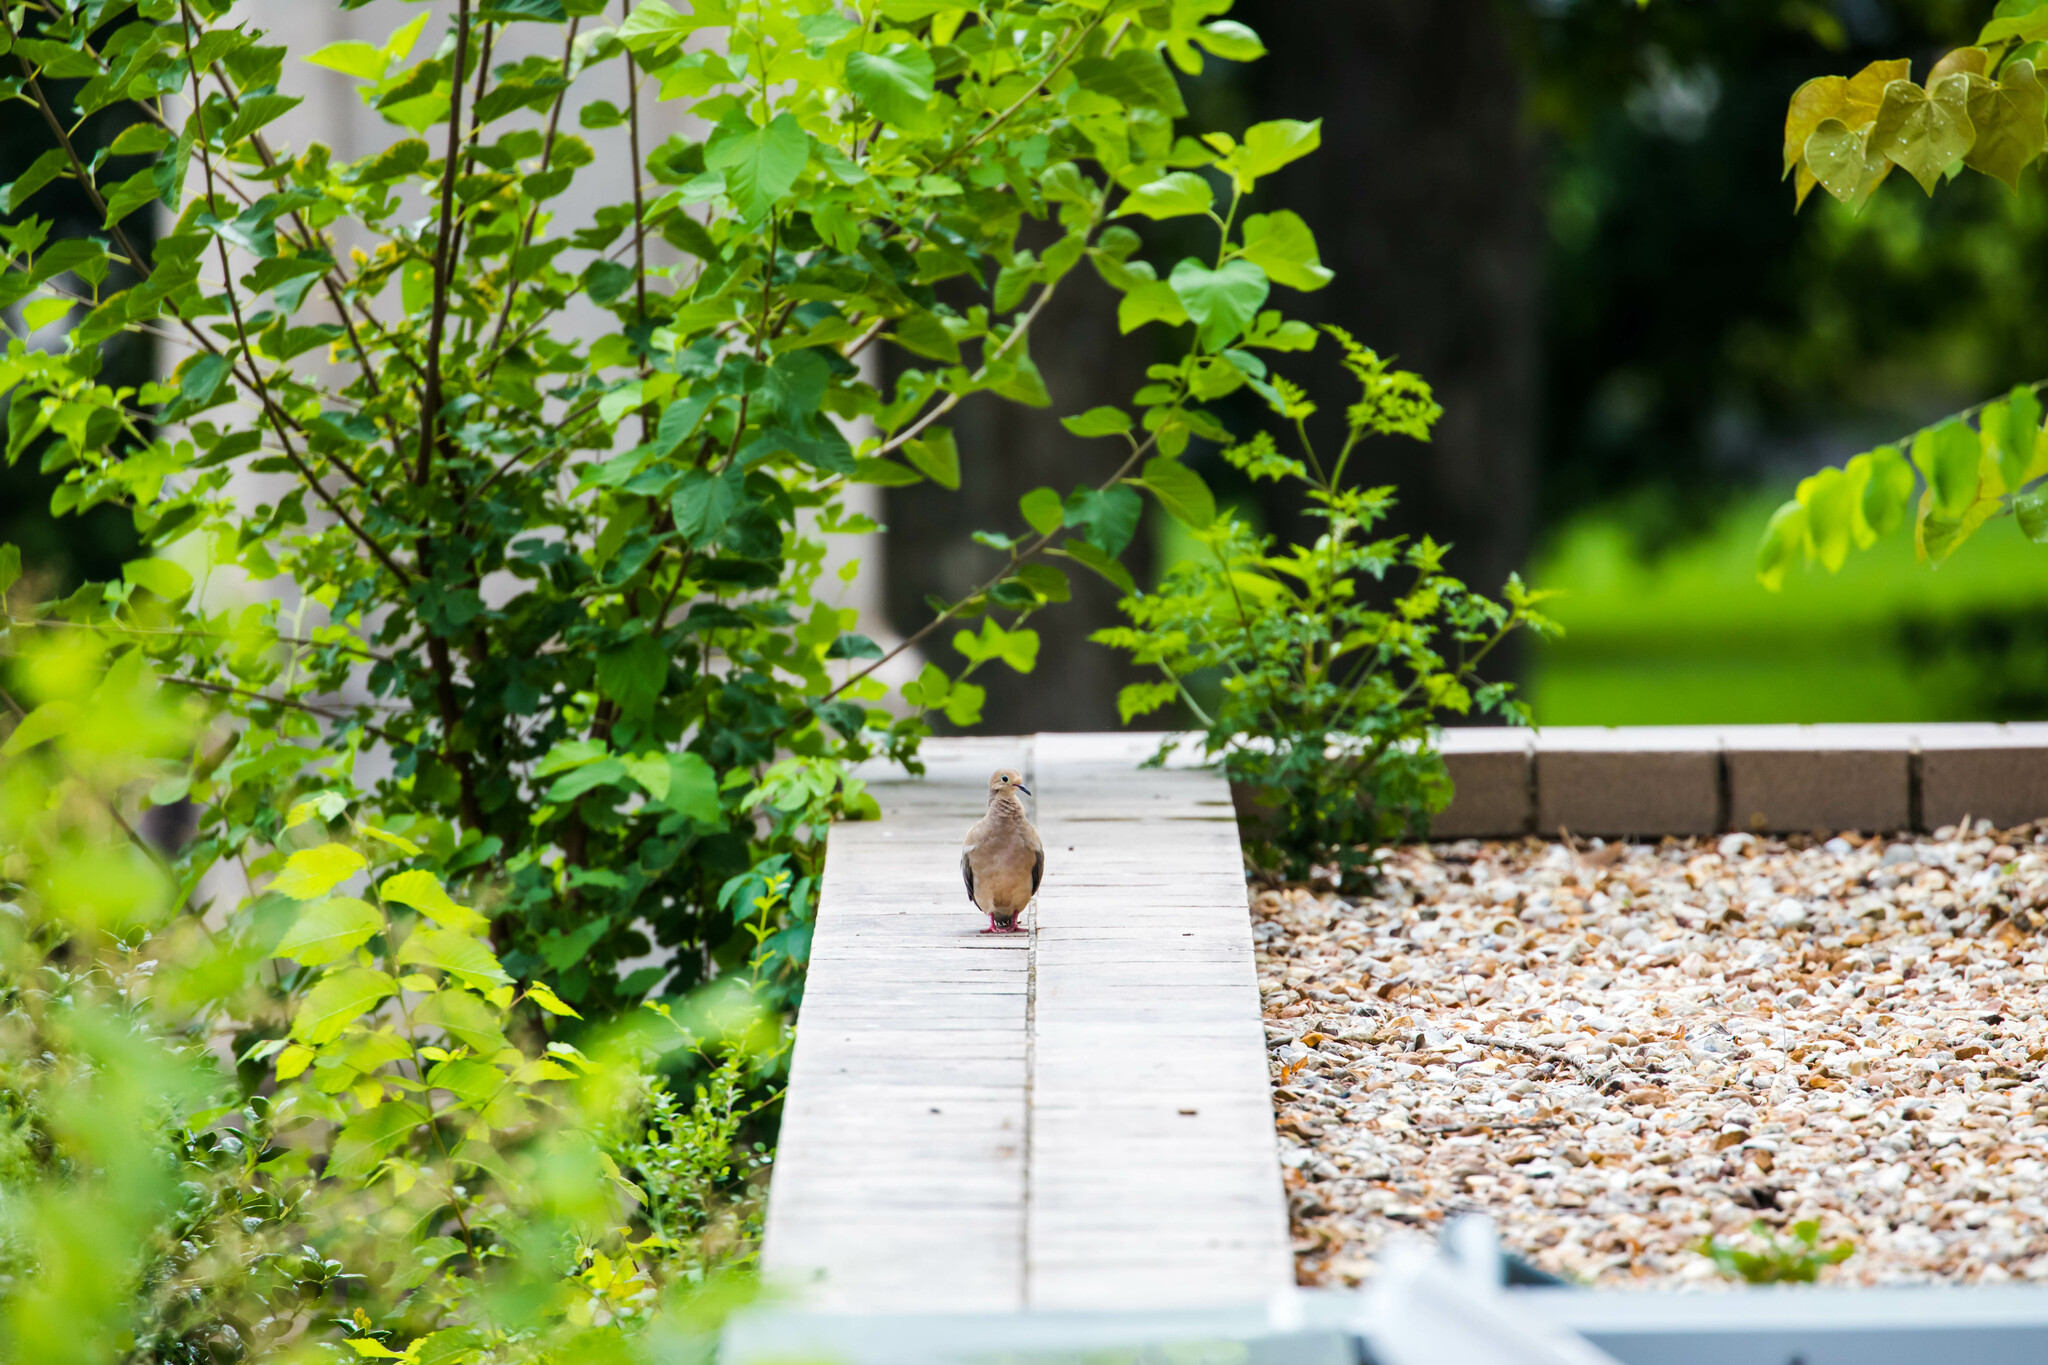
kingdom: Animalia
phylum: Chordata
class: Aves
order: Columbiformes
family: Columbidae
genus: Zenaida
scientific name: Zenaida macroura
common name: Mourning dove
